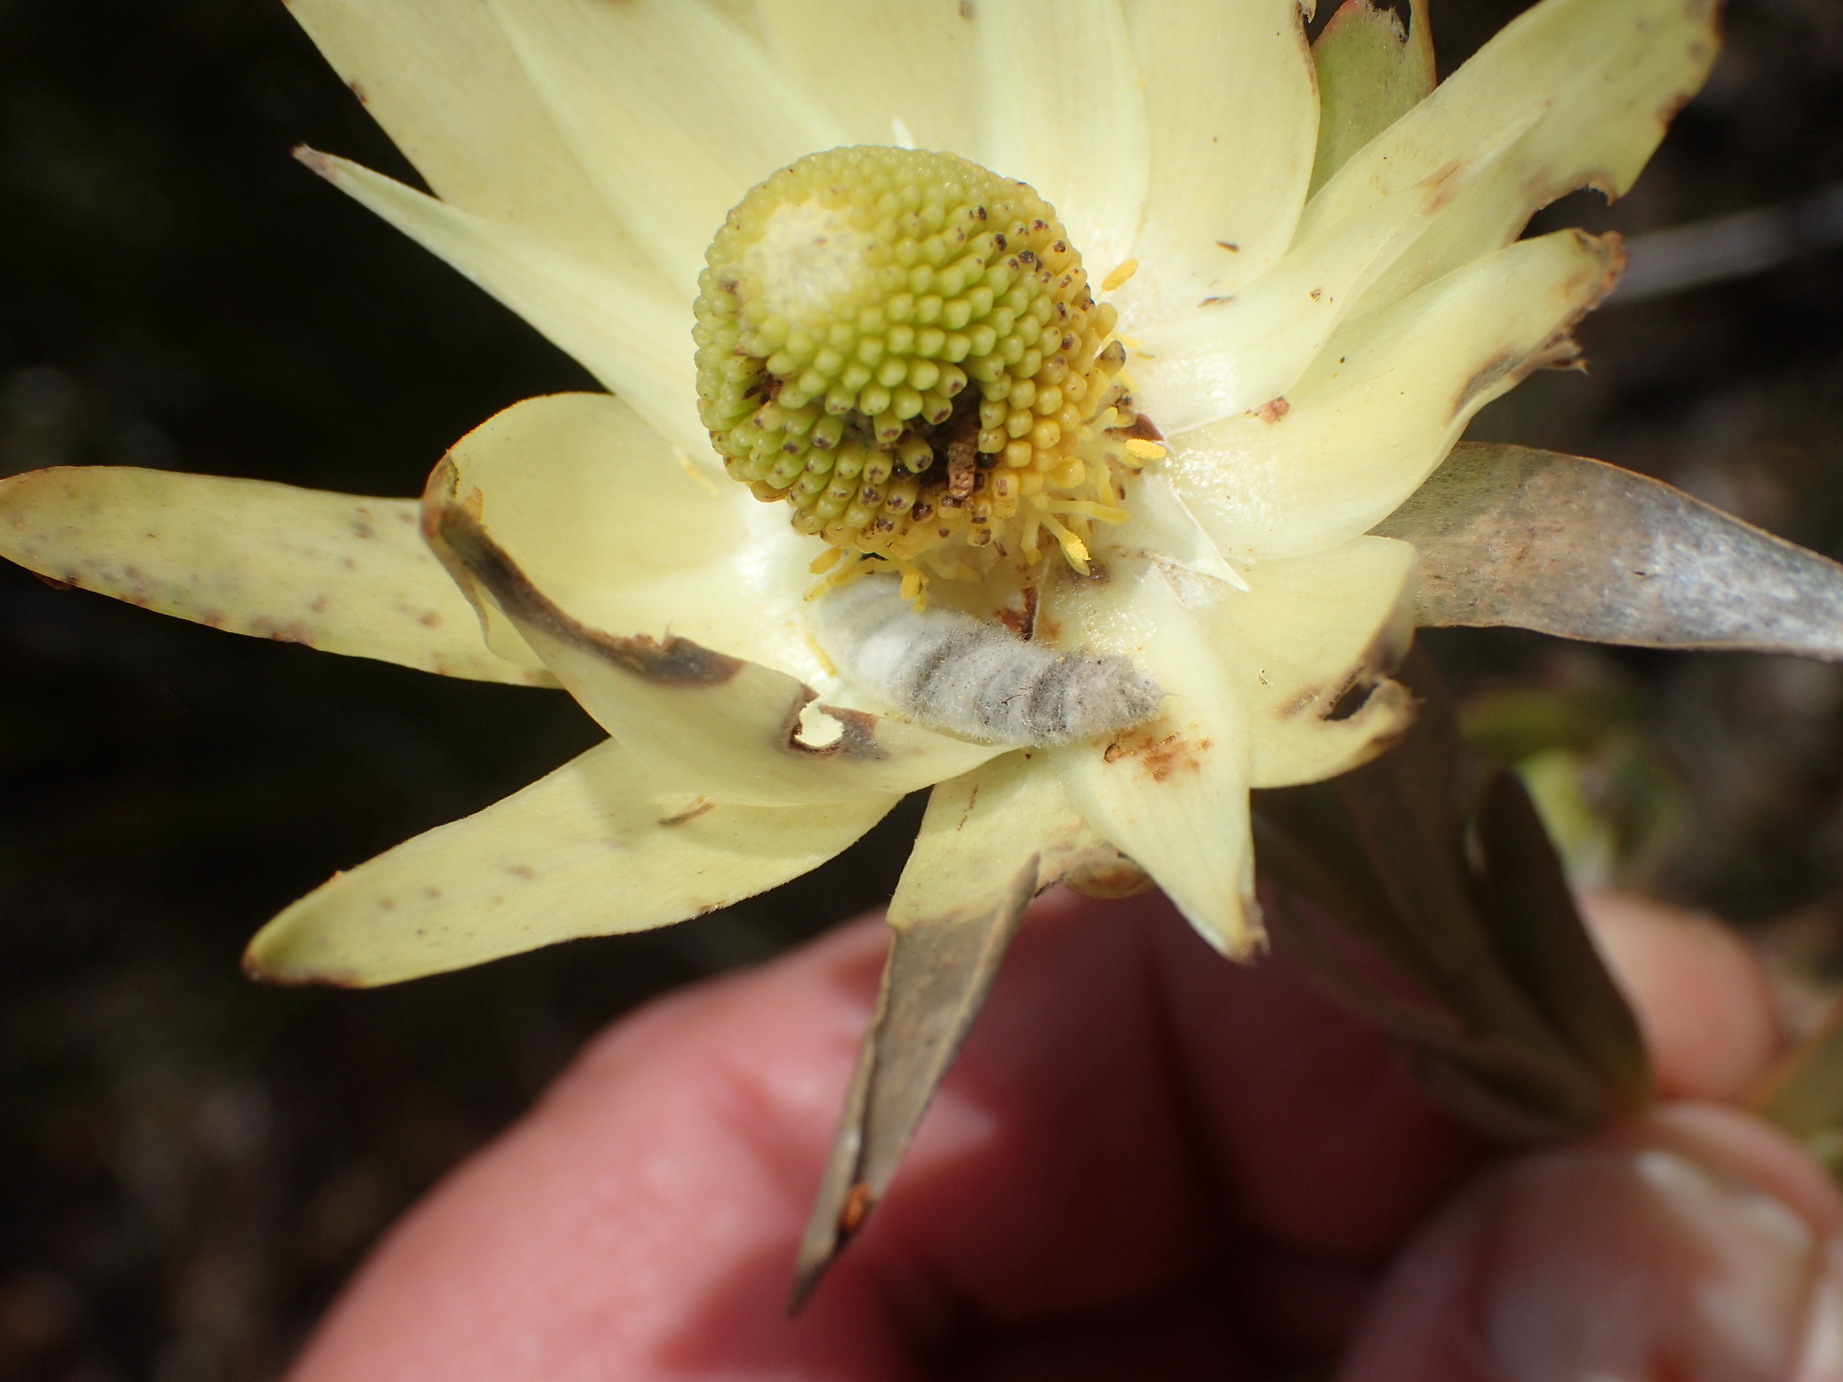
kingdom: Plantae
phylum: Tracheophyta
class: Magnoliopsida
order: Proteales
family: Proteaceae
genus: Leucadendron
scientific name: Leucadendron uliginosum
